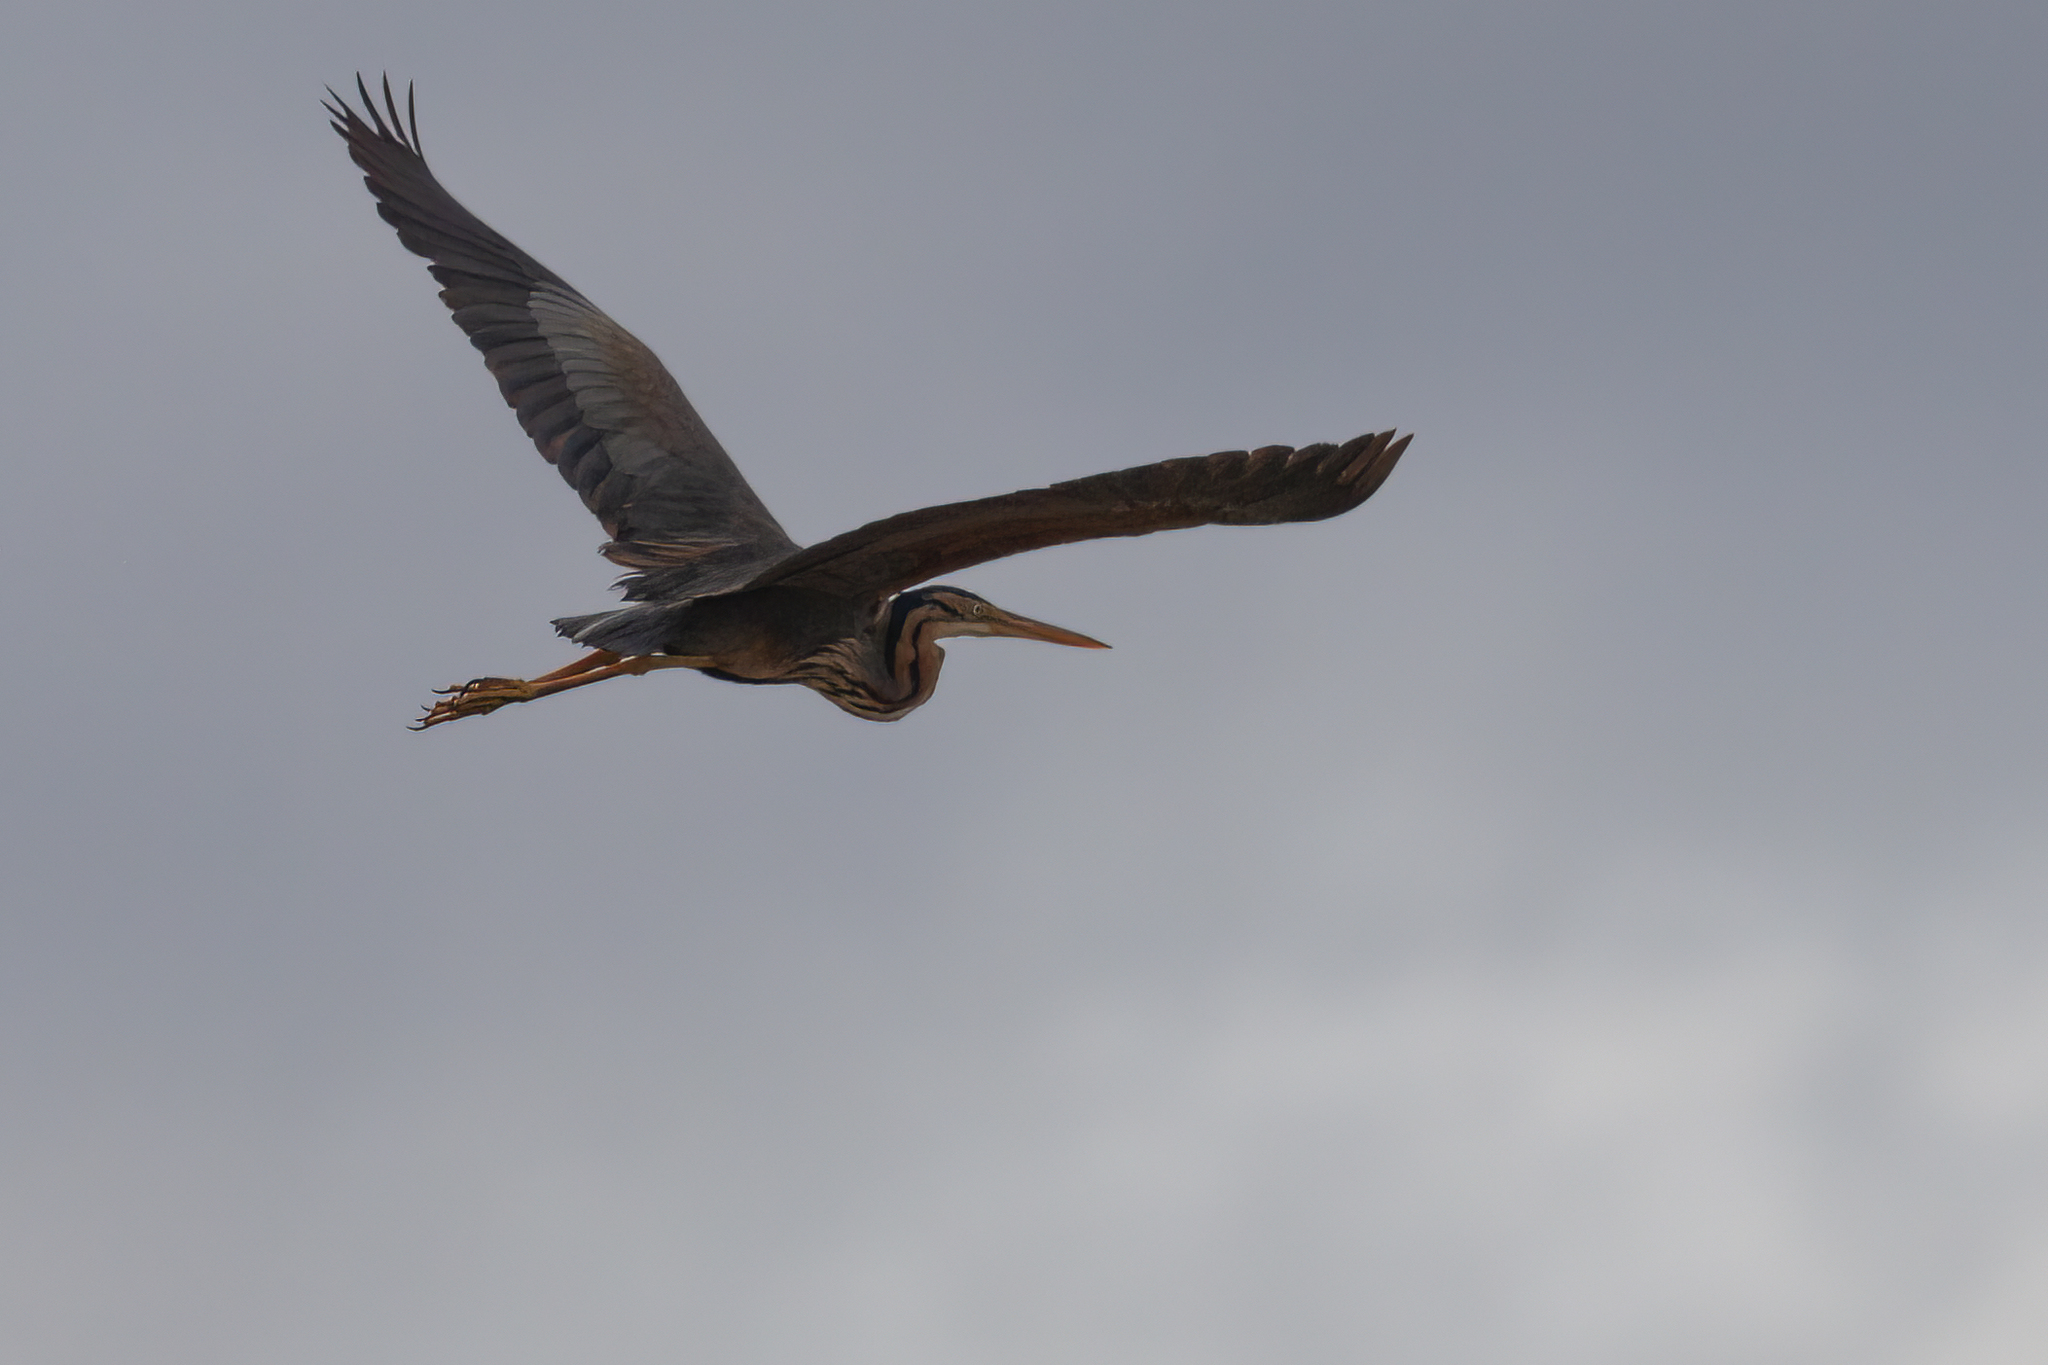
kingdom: Animalia
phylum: Chordata
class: Aves
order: Pelecaniformes
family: Ardeidae
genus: Ardea
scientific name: Ardea purpurea
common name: Purple heron
